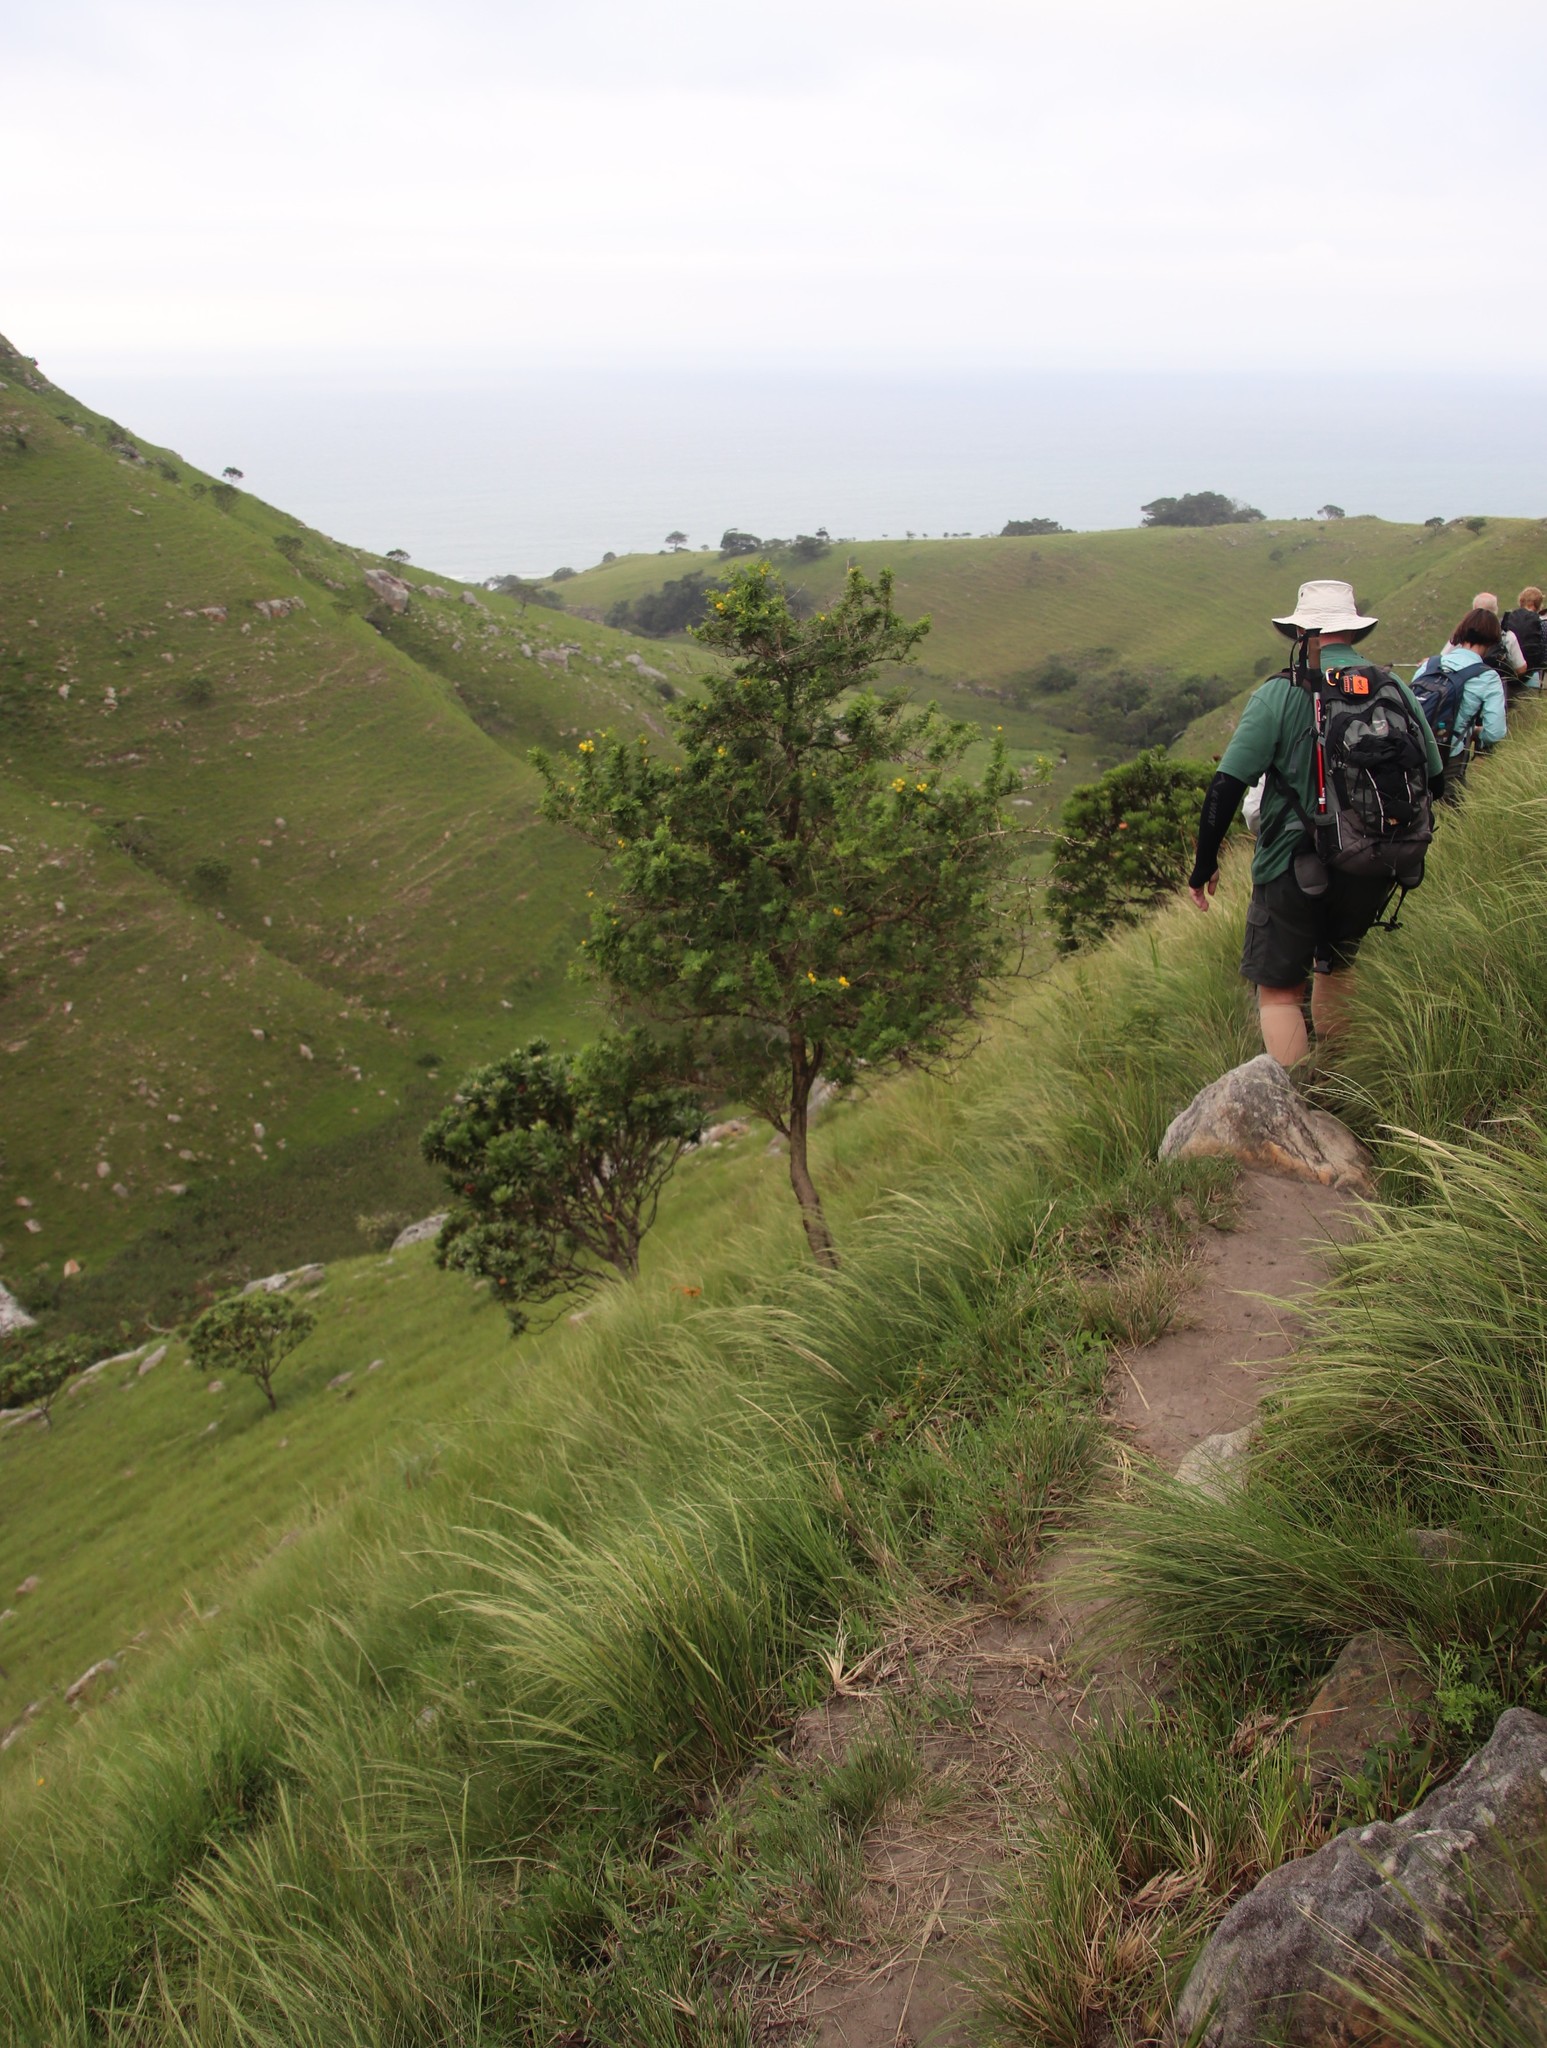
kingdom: Plantae
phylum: Tracheophyta
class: Magnoliopsida
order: Fabales
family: Fabaceae
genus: Vachellia
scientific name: Vachellia karroo
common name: Sweet thorn
